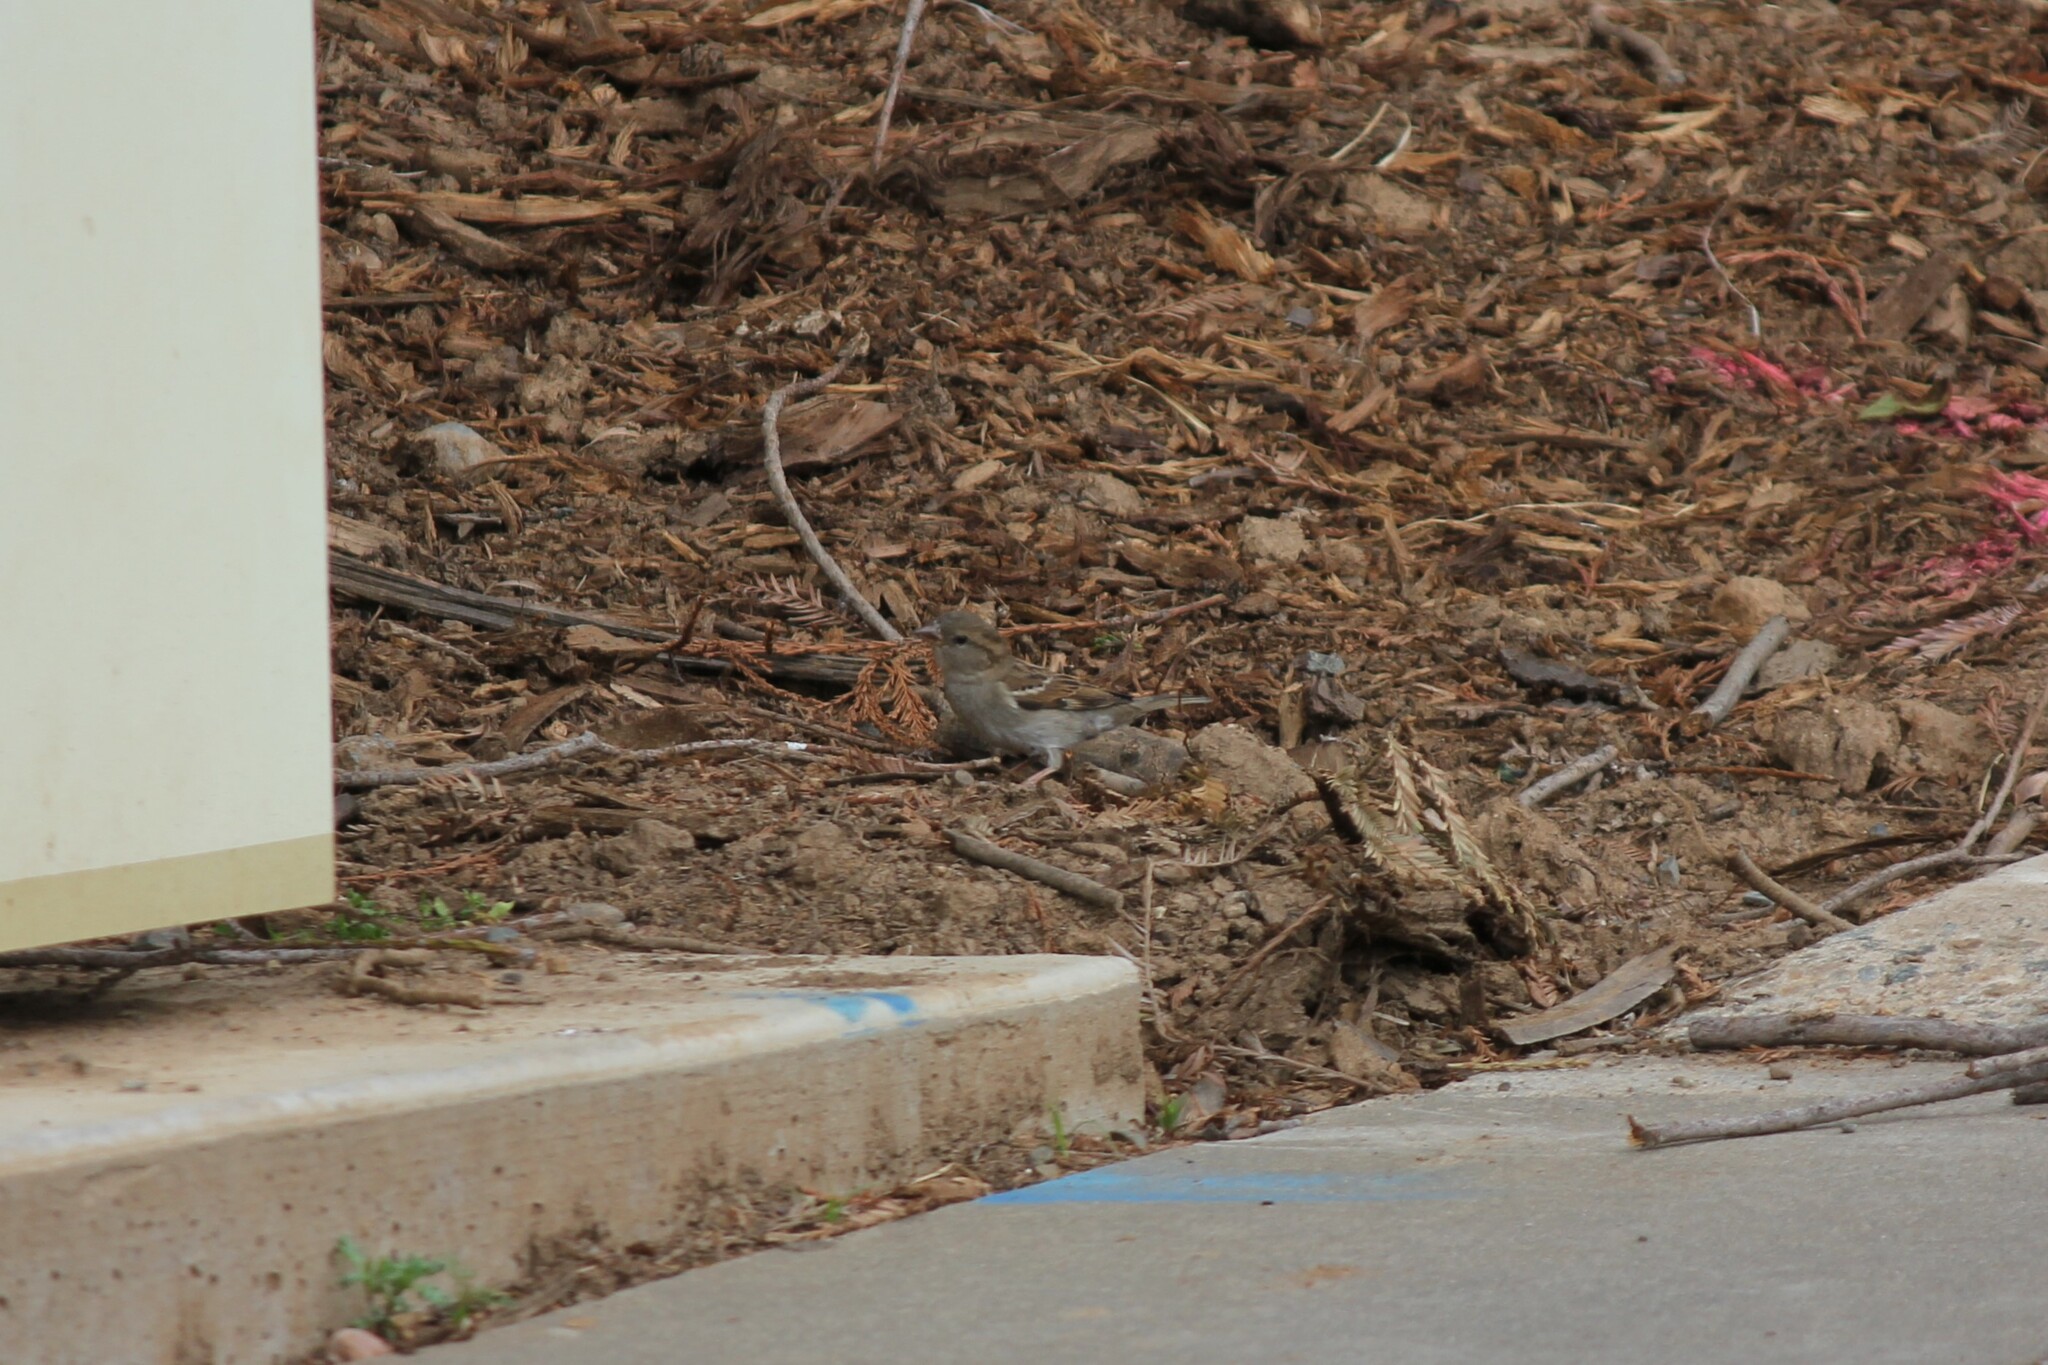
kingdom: Animalia
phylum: Chordata
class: Aves
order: Passeriformes
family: Passeridae
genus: Passer
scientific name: Passer domesticus
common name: House sparrow
